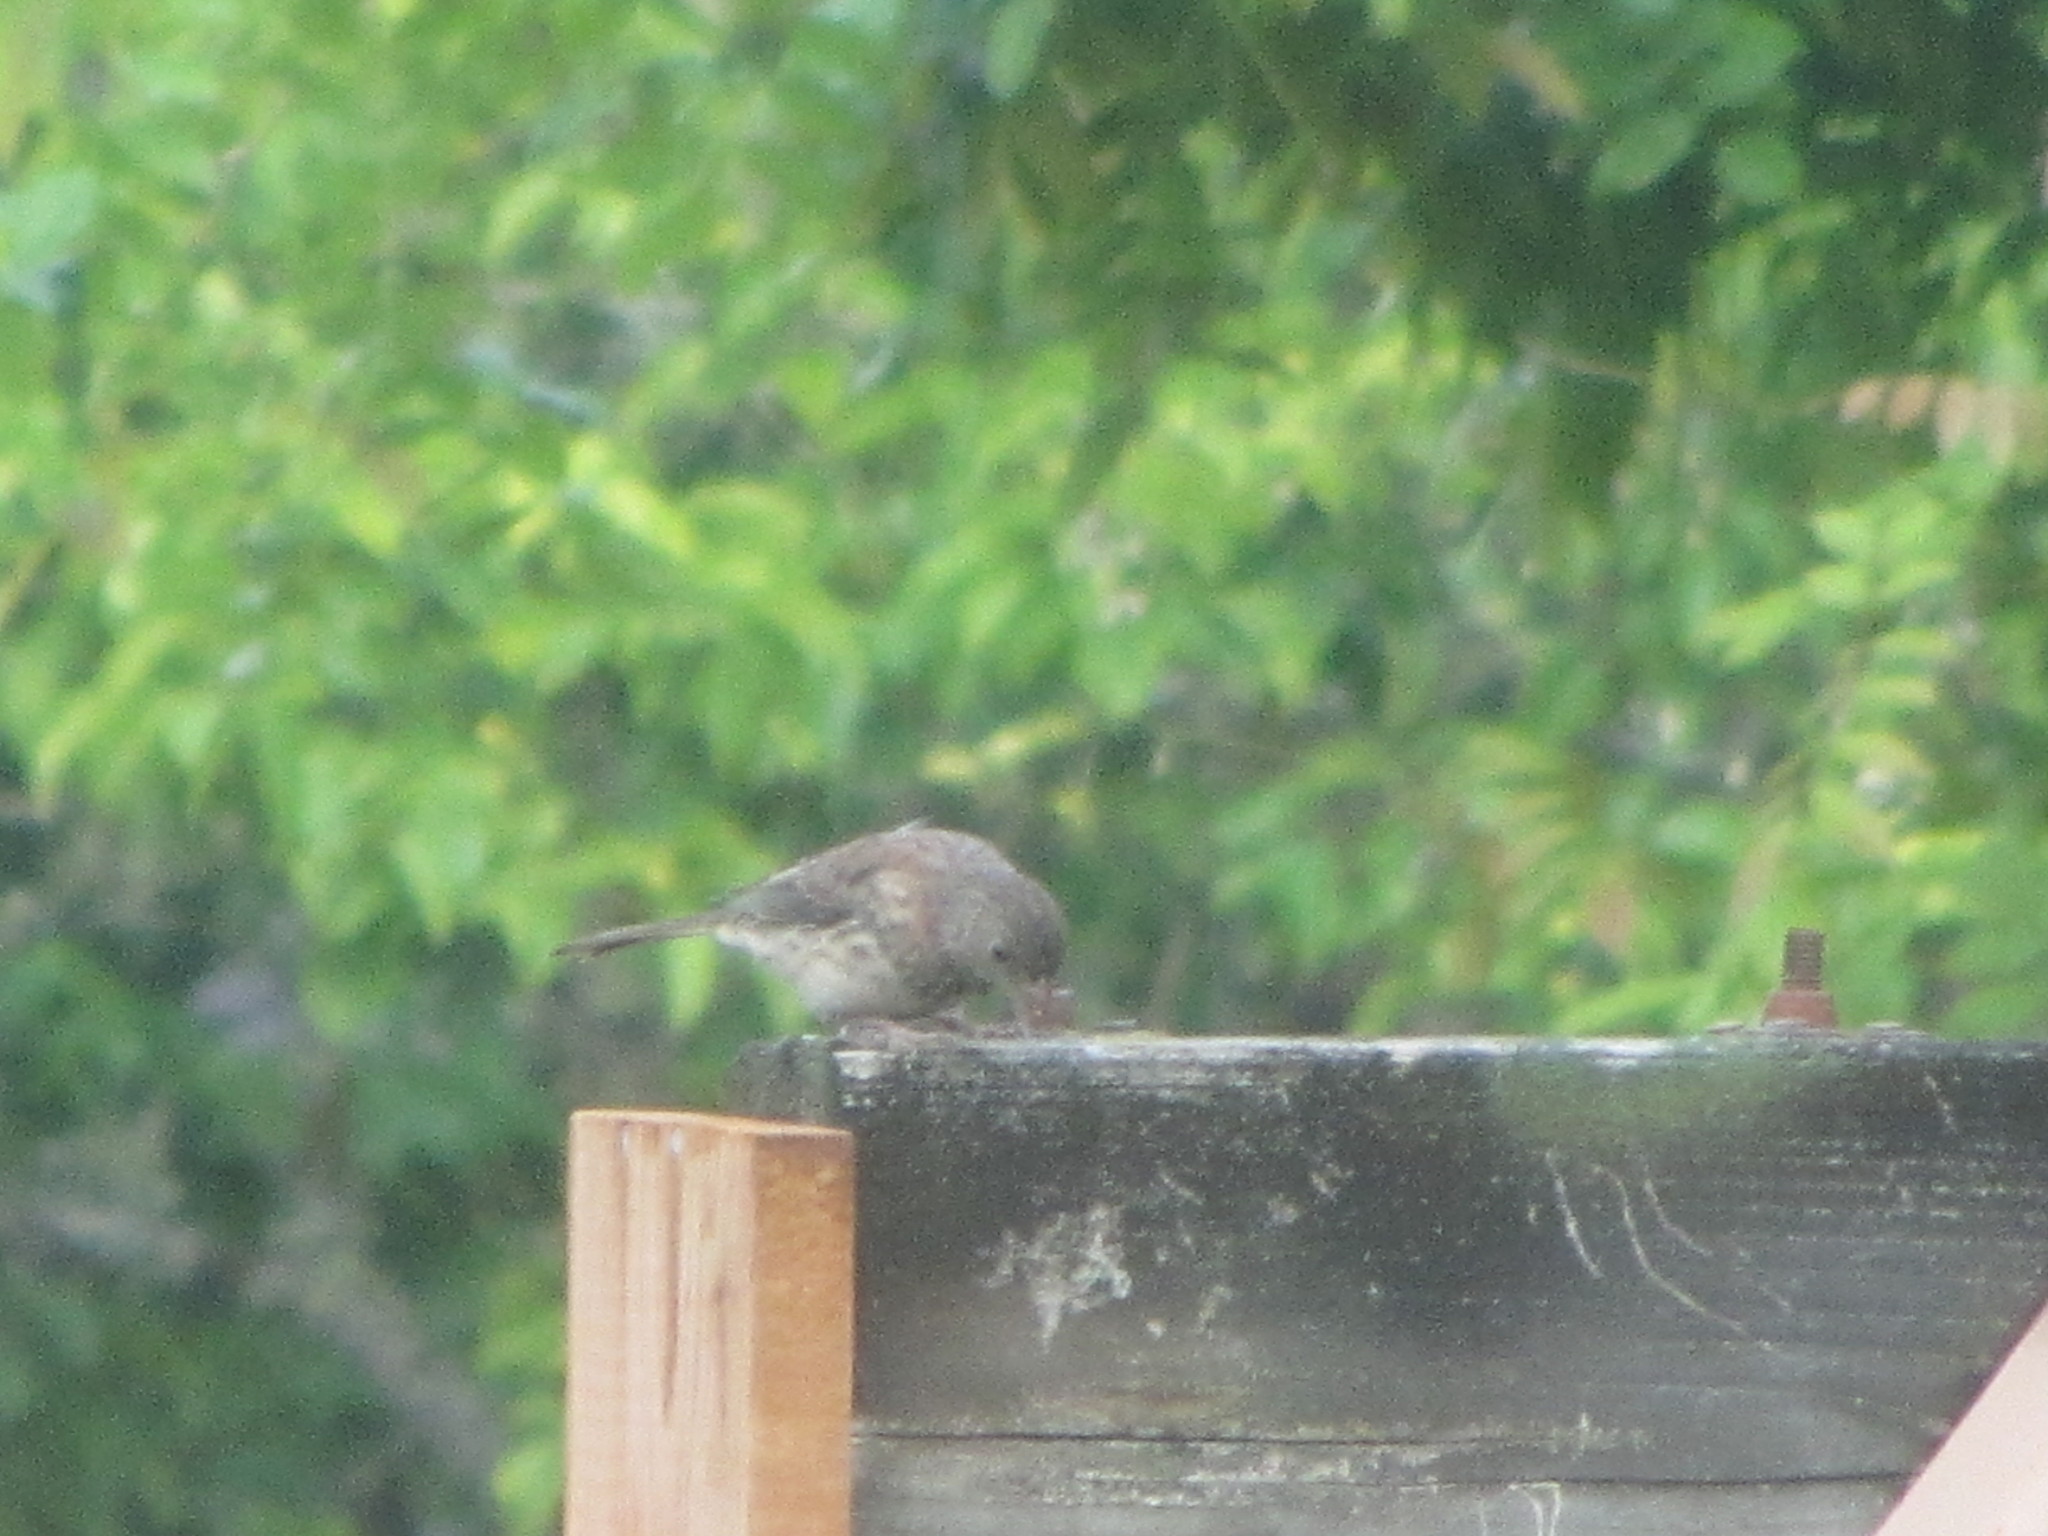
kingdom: Animalia
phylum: Chordata
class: Aves
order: Passeriformes
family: Passerellidae
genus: Junco
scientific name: Junco hyemalis
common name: Dark-eyed junco
